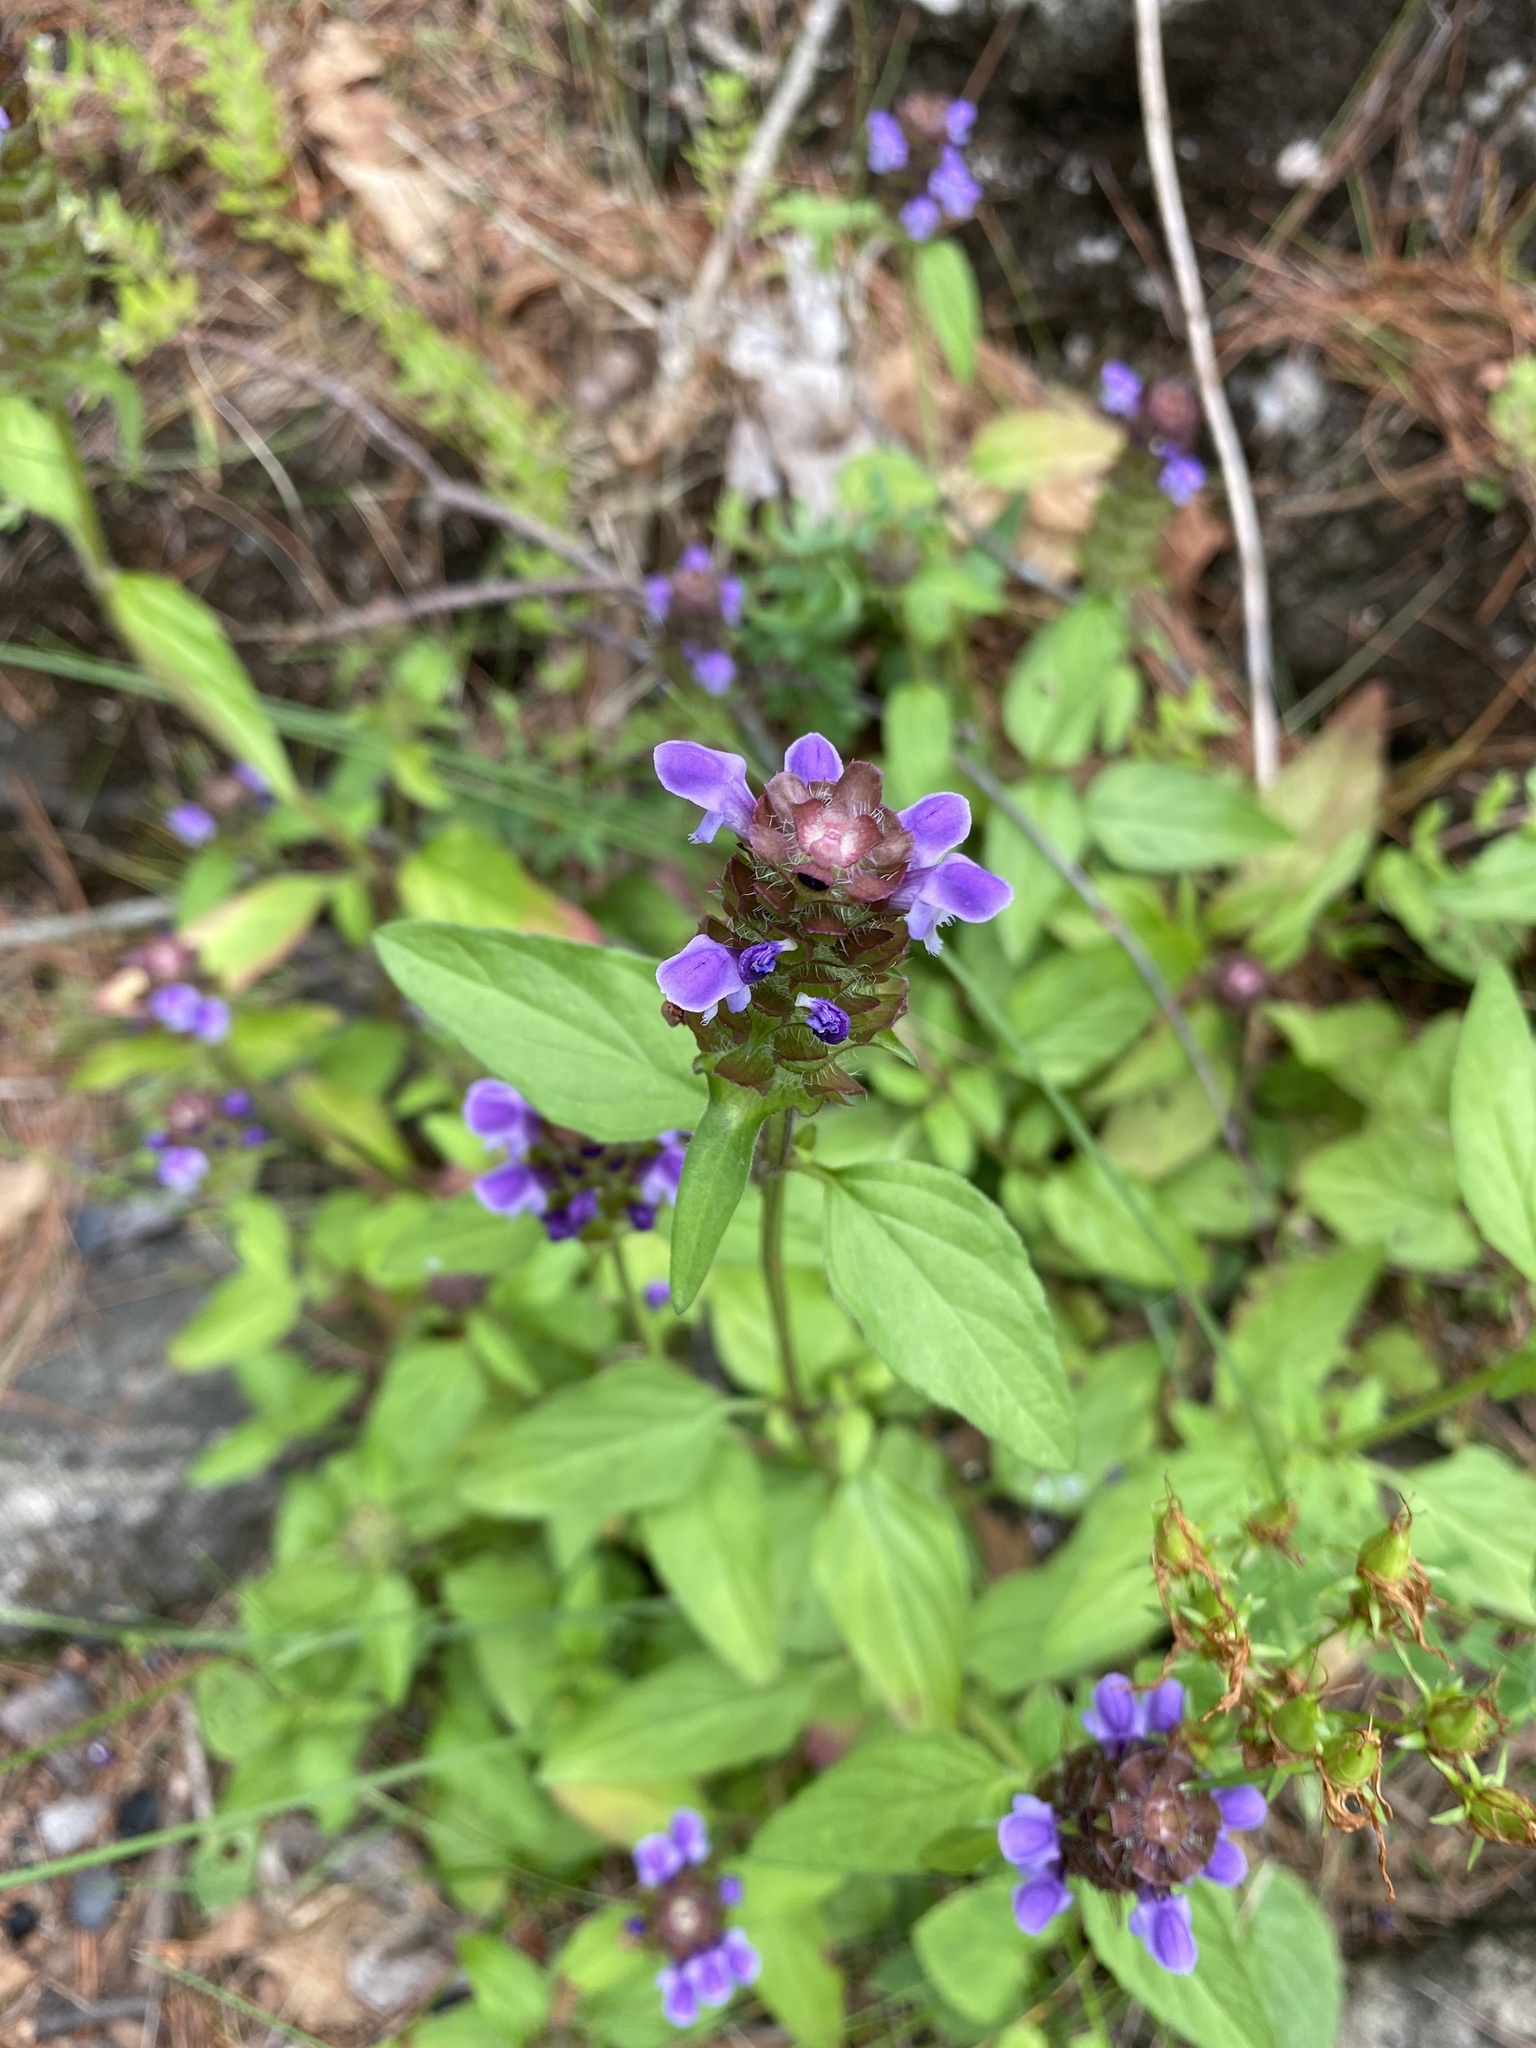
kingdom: Plantae
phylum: Tracheophyta
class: Magnoliopsida
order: Lamiales
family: Lamiaceae
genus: Prunella
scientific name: Prunella vulgaris
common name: Heal-all
